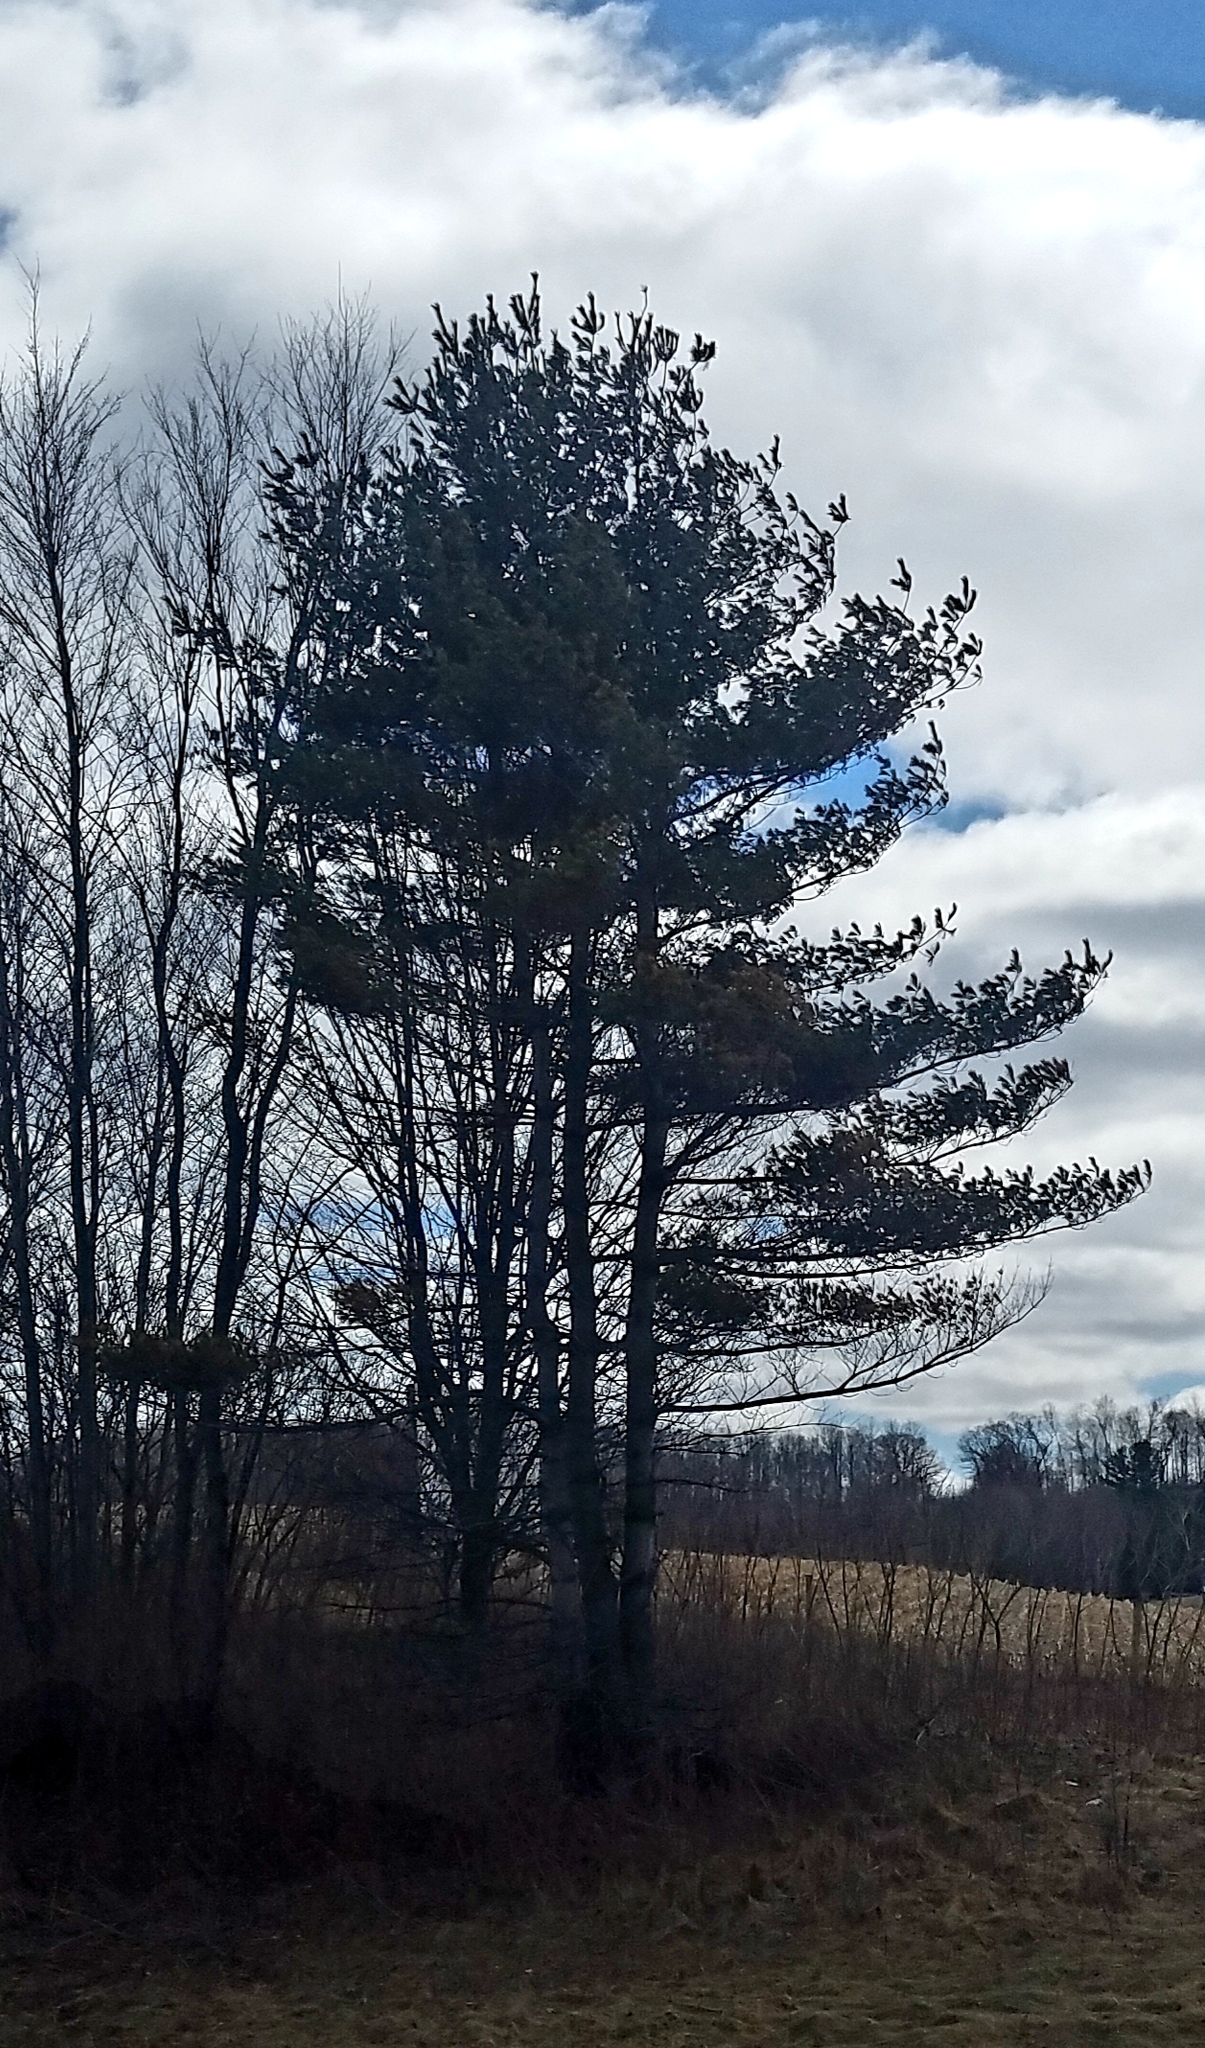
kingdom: Plantae
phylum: Tracheophyta
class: Pinopsida
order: Pinales
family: Pinaceae
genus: Pinus
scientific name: Pinus strobus
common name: Weymouth pine
